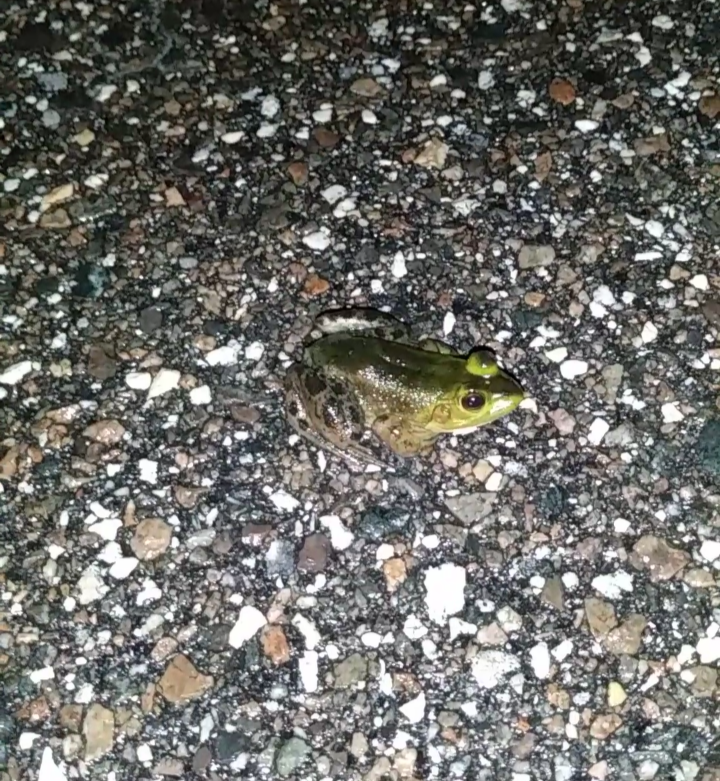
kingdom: Animalia
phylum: Chordata
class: Amphibia
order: Anura
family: Ranidae
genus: Lithobates
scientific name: Lithobates grylio
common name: Pig frog
